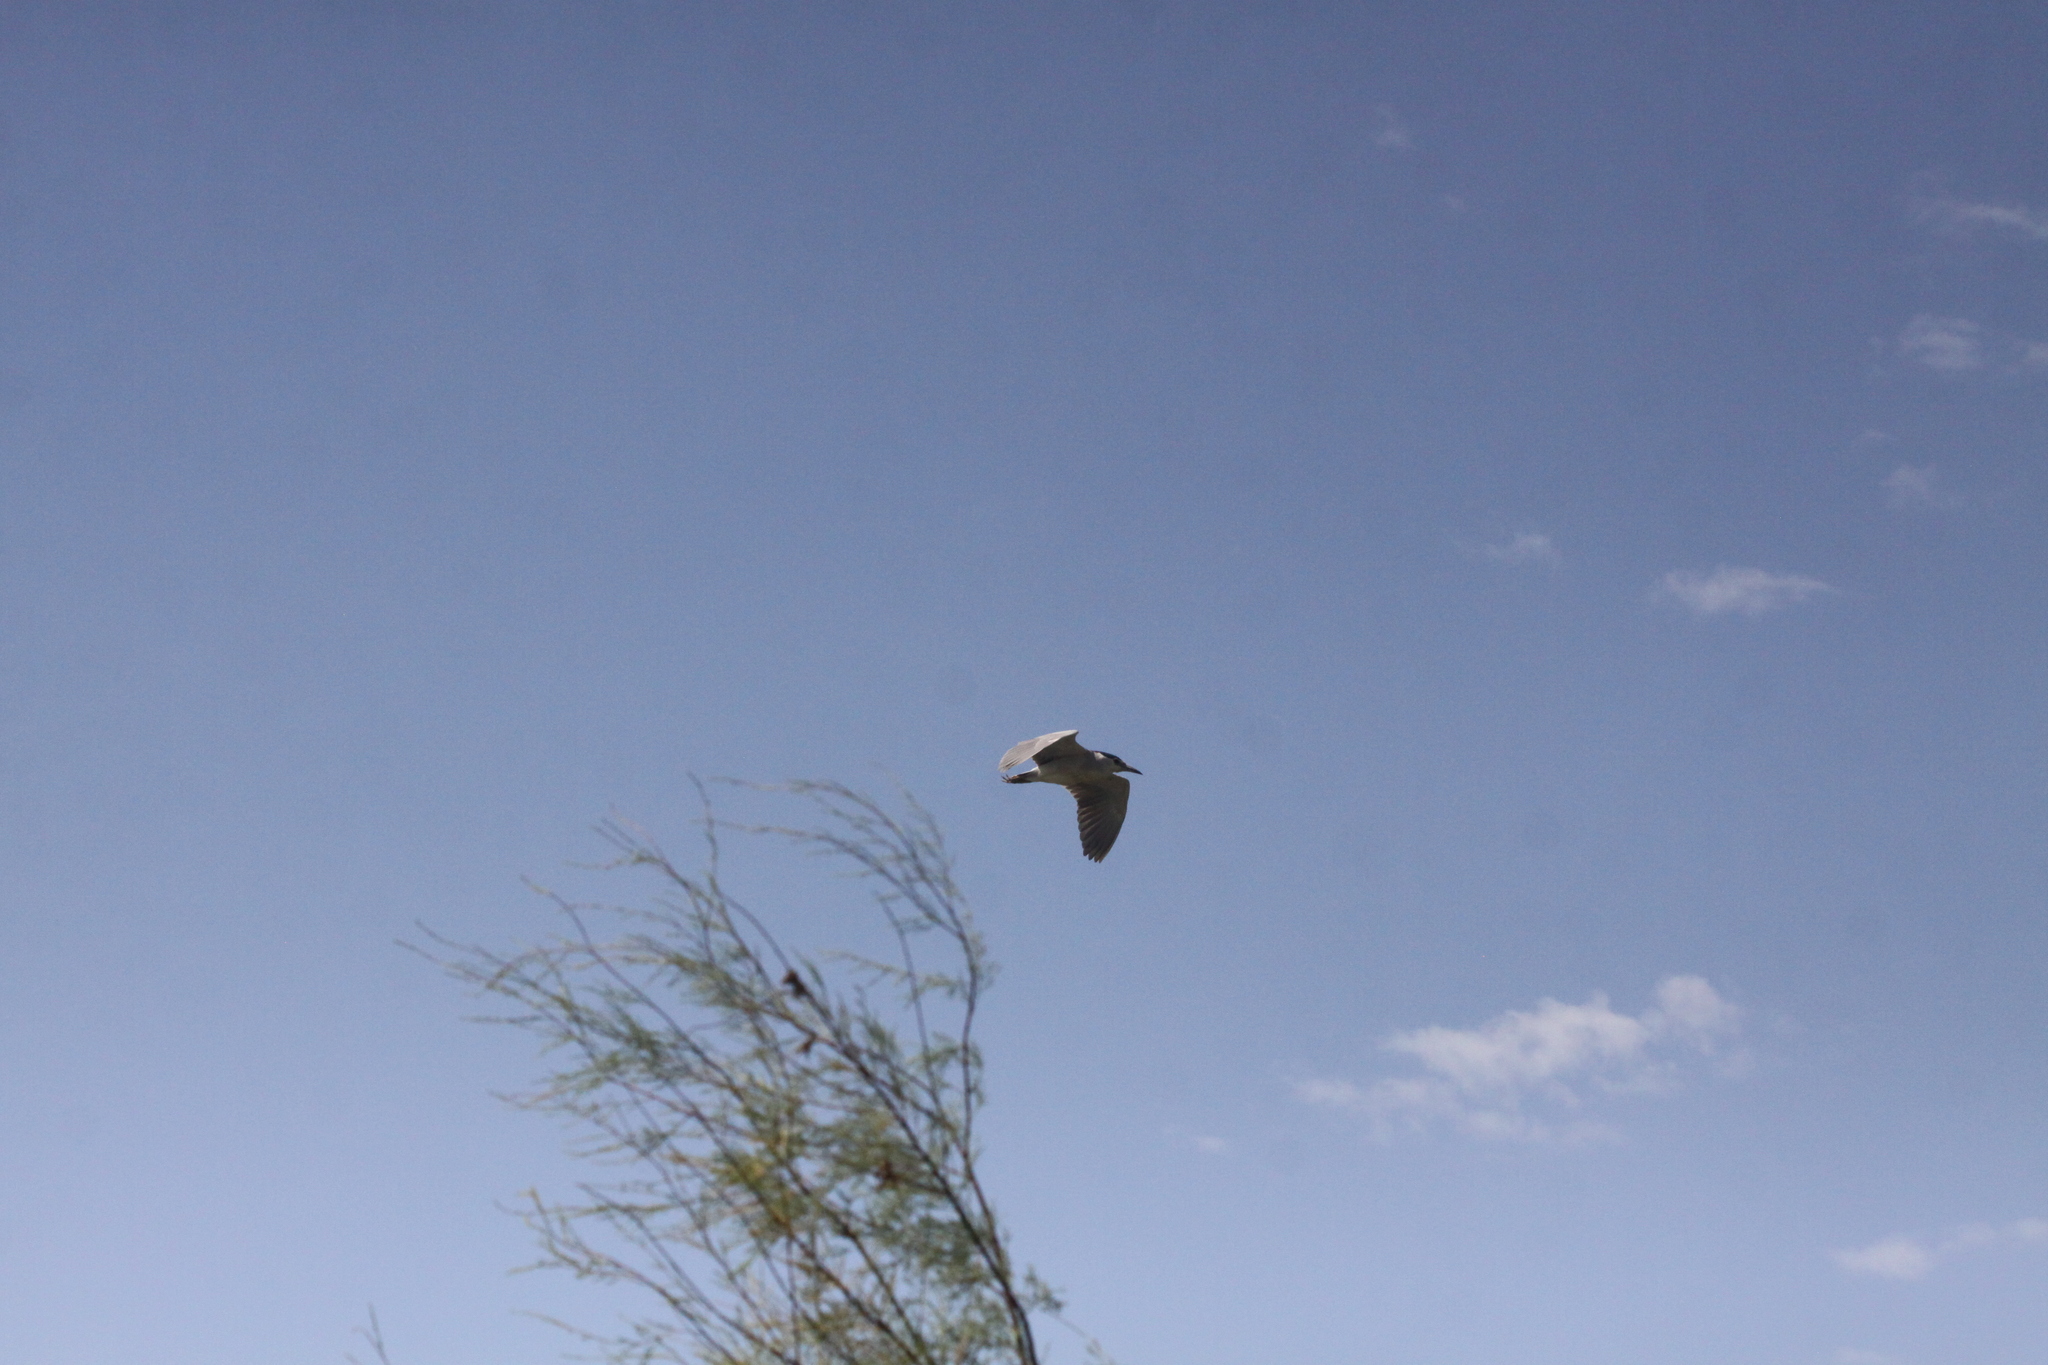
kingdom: Animalia
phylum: Chordata
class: Aves
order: Pelecaniformes
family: Ardeidae
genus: Nycticorax
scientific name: Nycticorax nycticorax
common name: Black-crowned night heron
